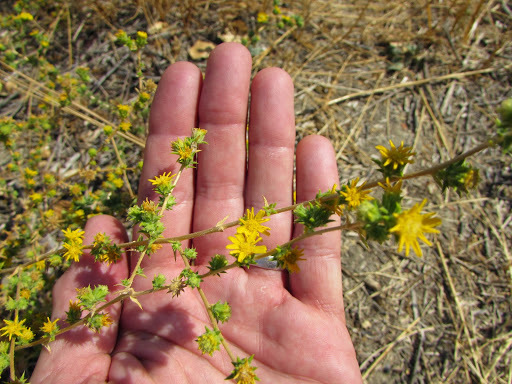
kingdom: Plantae
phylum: Tracheophyta
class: Magnoliopsida
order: Asterales
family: Asteraceae
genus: Centromadia
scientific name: Centromadia pungens
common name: Common spikeweed
